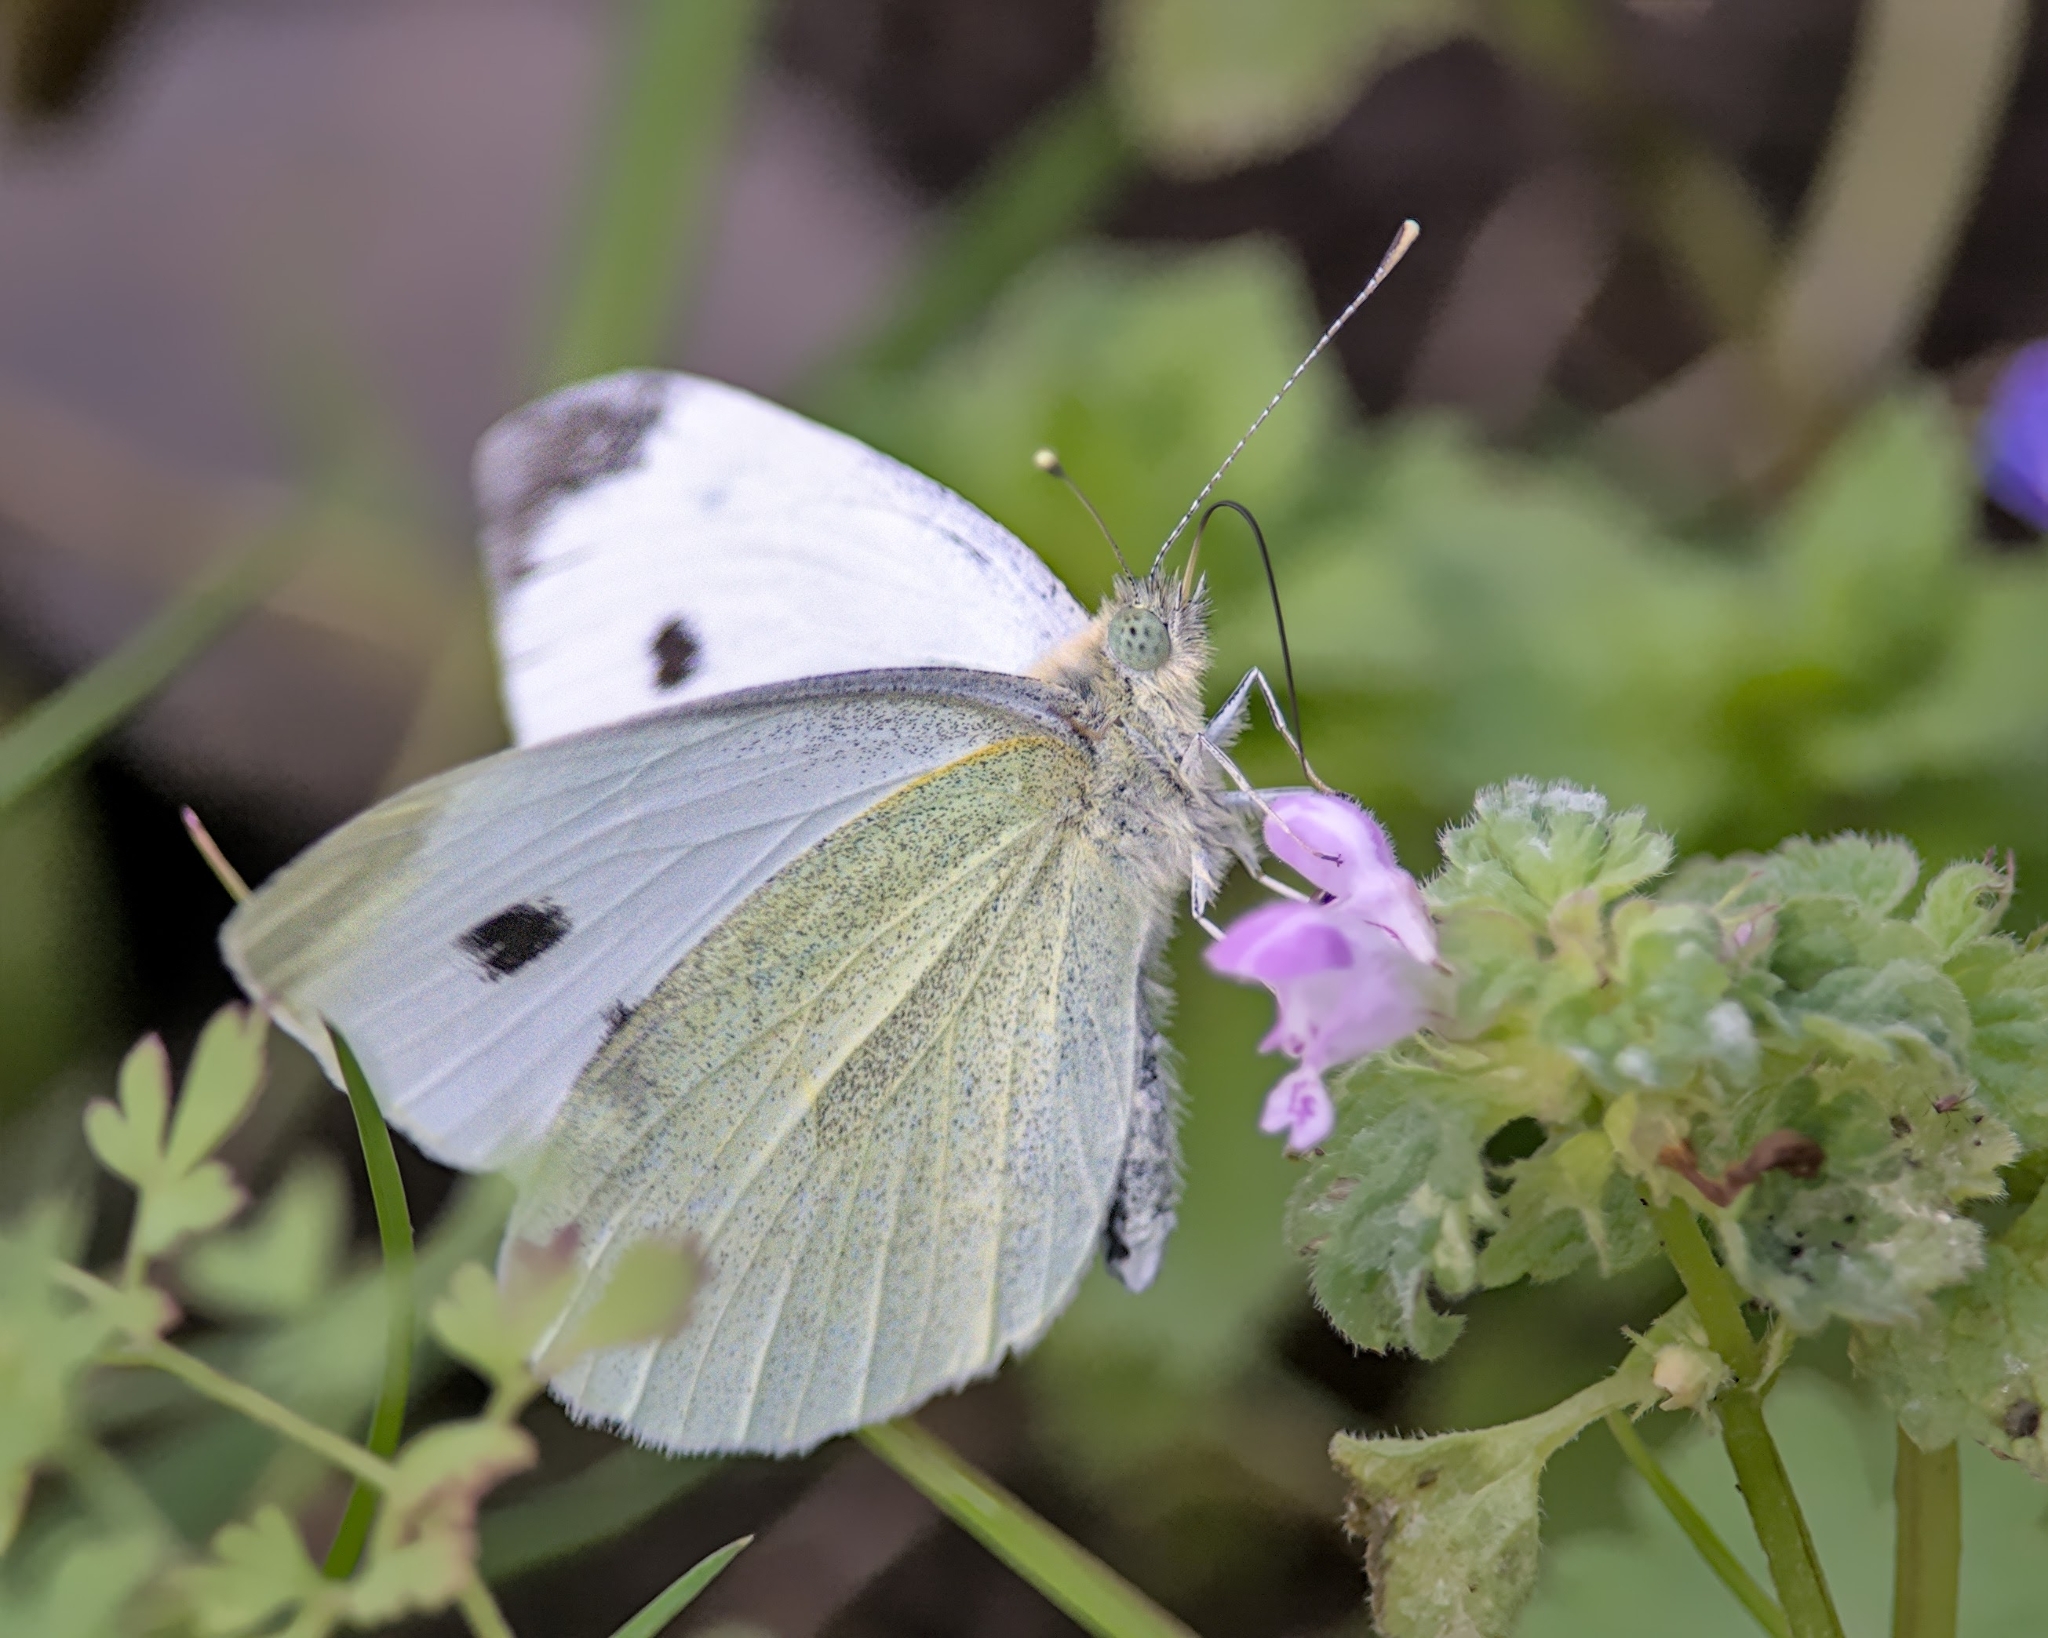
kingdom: Animalia
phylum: Arthropoda
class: Insecta
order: Lepidoptera
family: Pieridae
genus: Pieris
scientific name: Pieris rapae
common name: Small white
